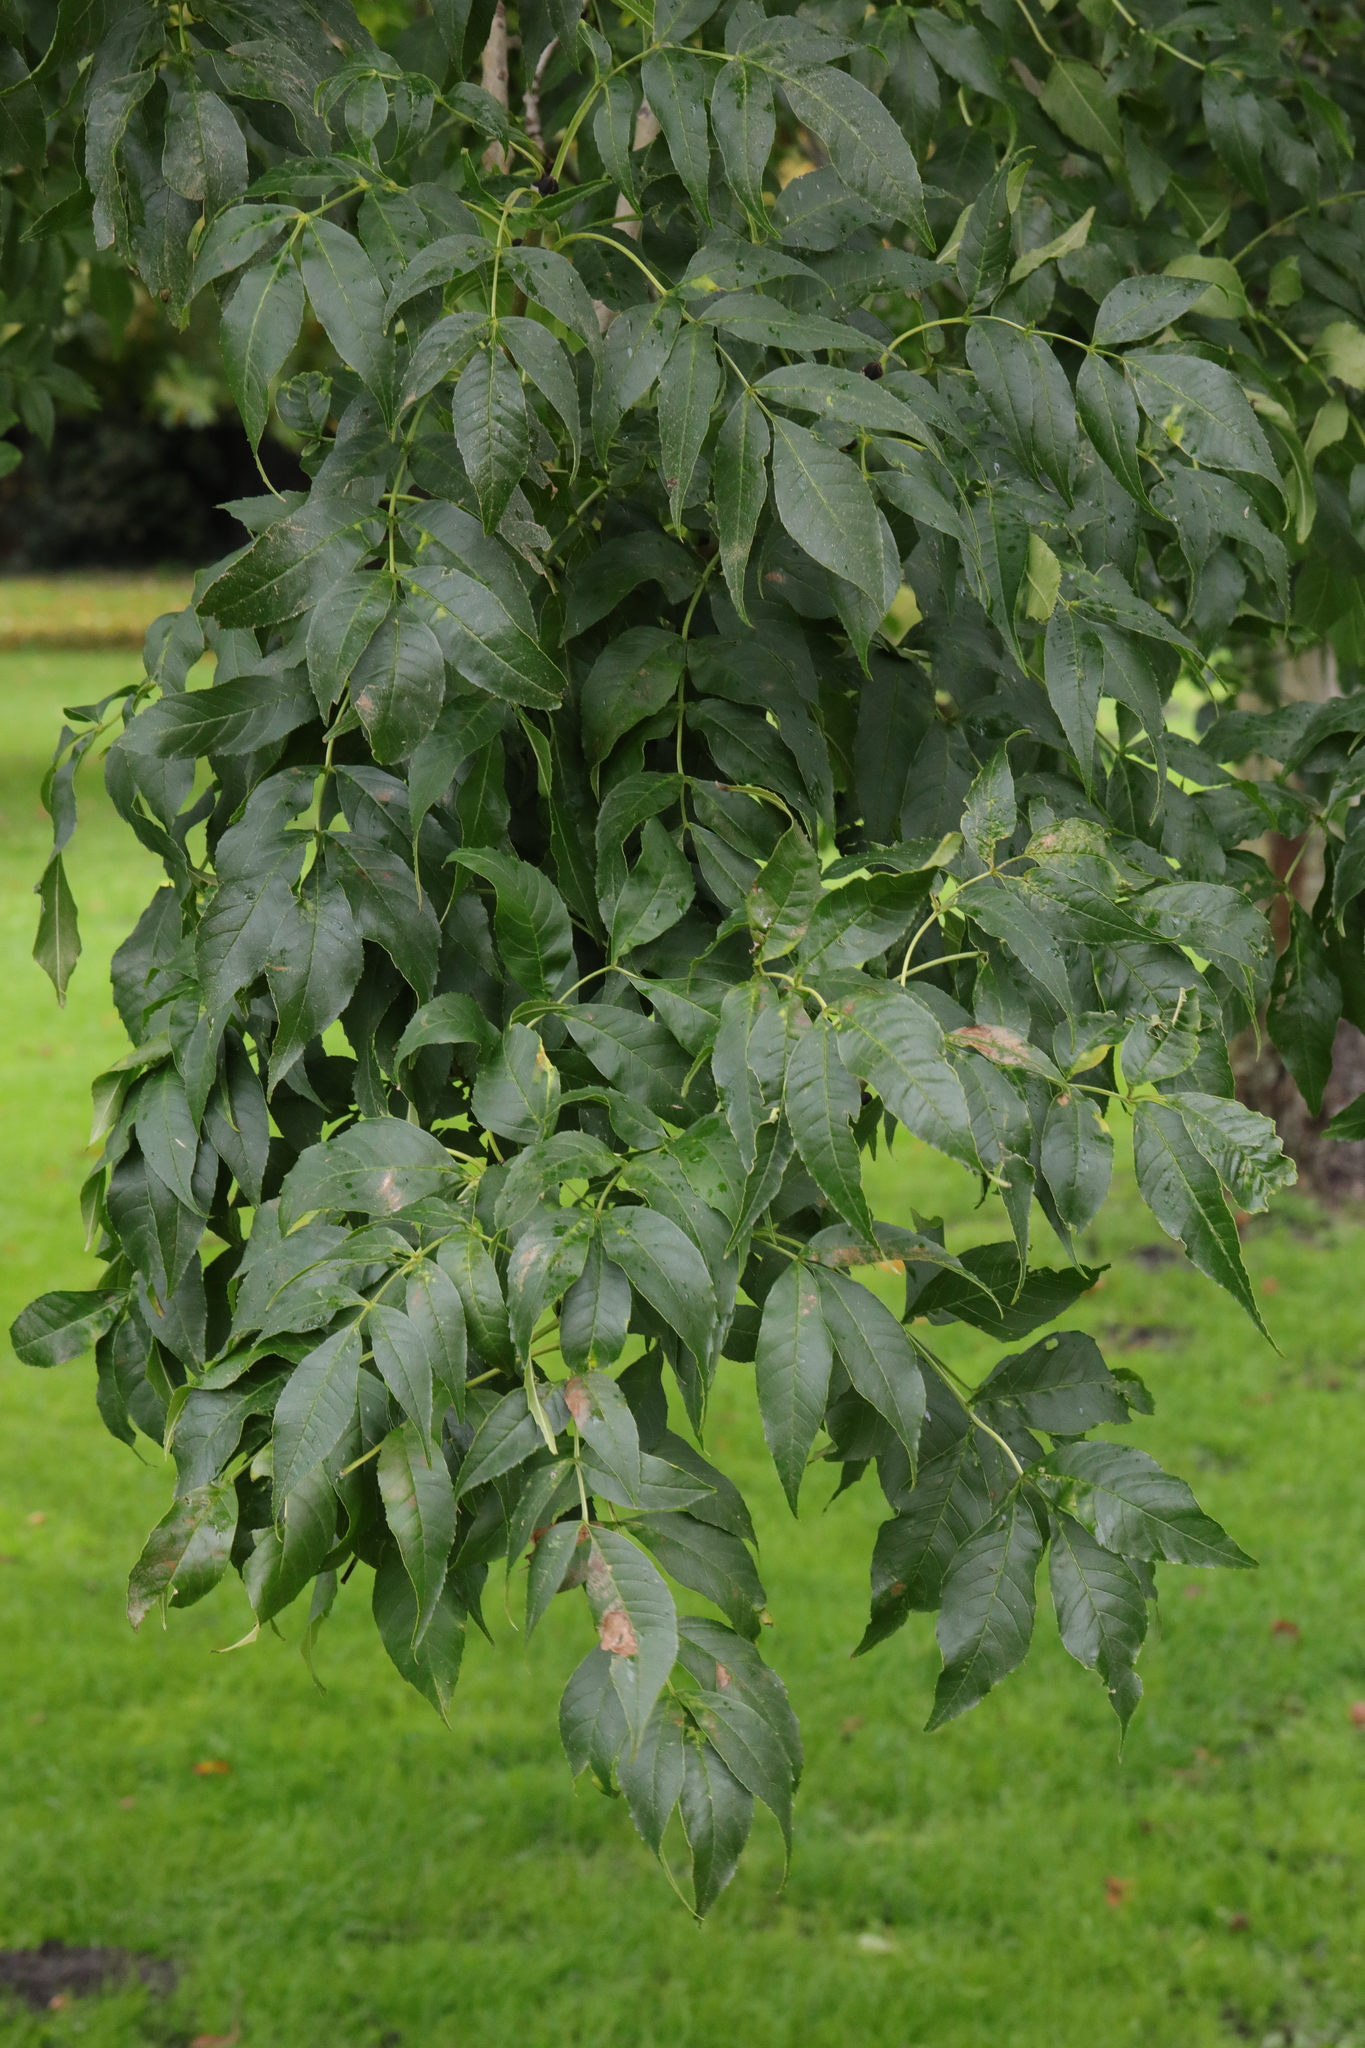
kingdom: Plantae
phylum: Tracheophyta
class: Magnoliopsida
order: Lamiales
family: Oleaceae
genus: Fraxinus
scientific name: Fraxinus excelsior
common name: European ash
